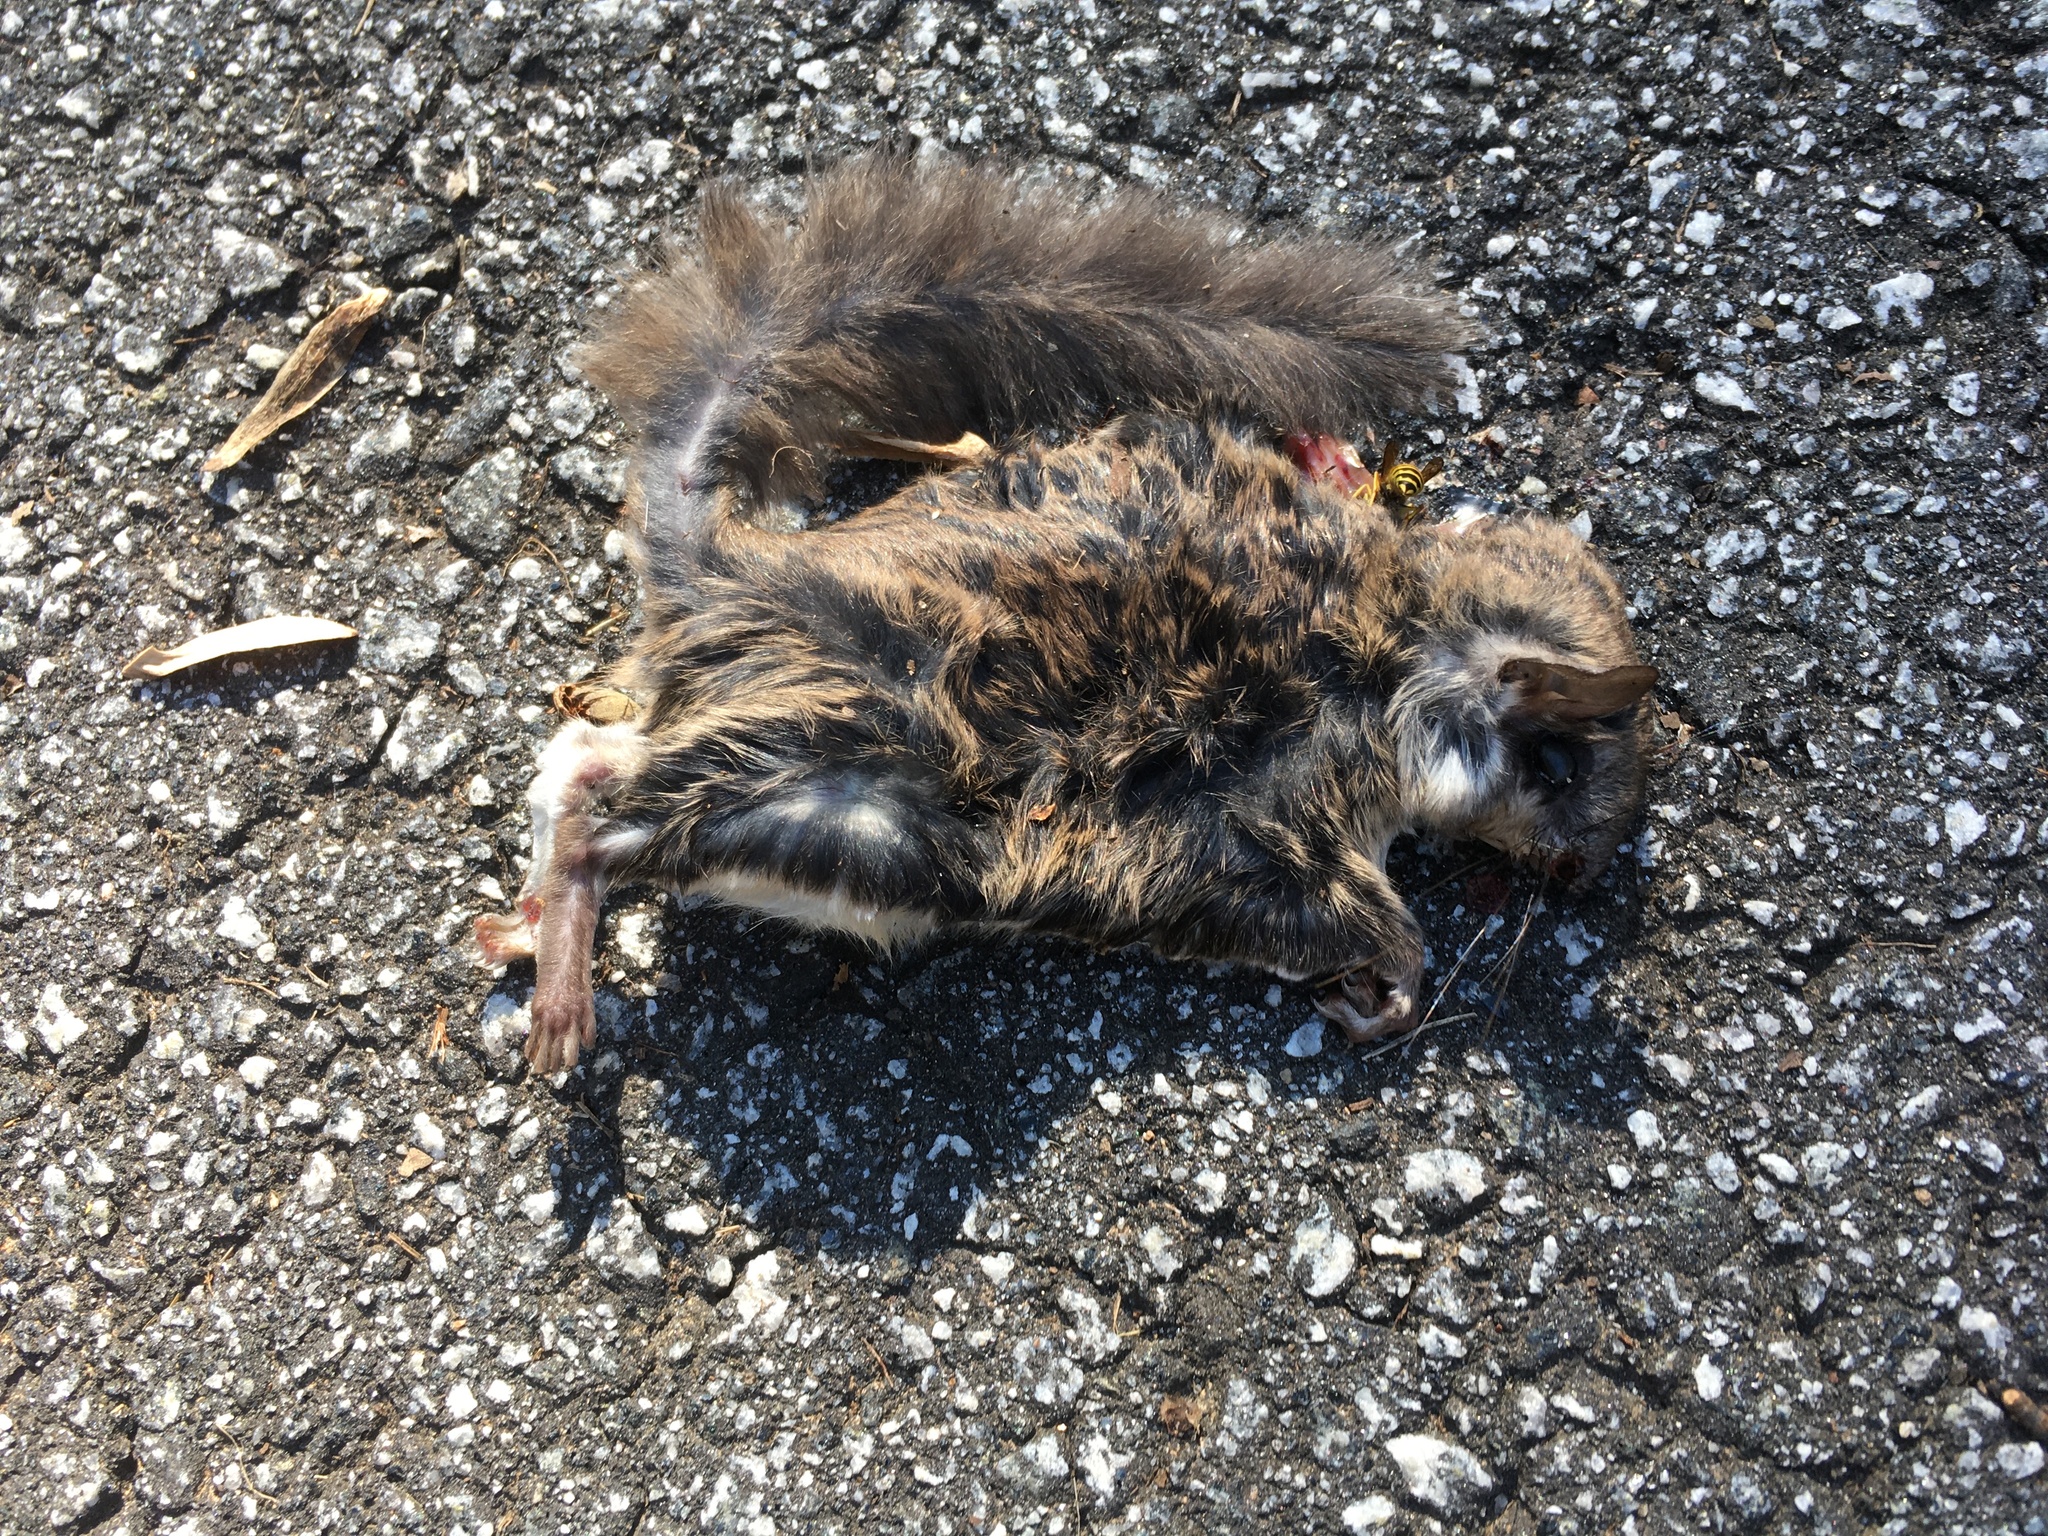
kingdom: Animalia
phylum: Chordata
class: Mammalia
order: Rodentia
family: Sciuridae
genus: Glaucomys
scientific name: Glaucomys volans
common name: Southern flying squirrel
